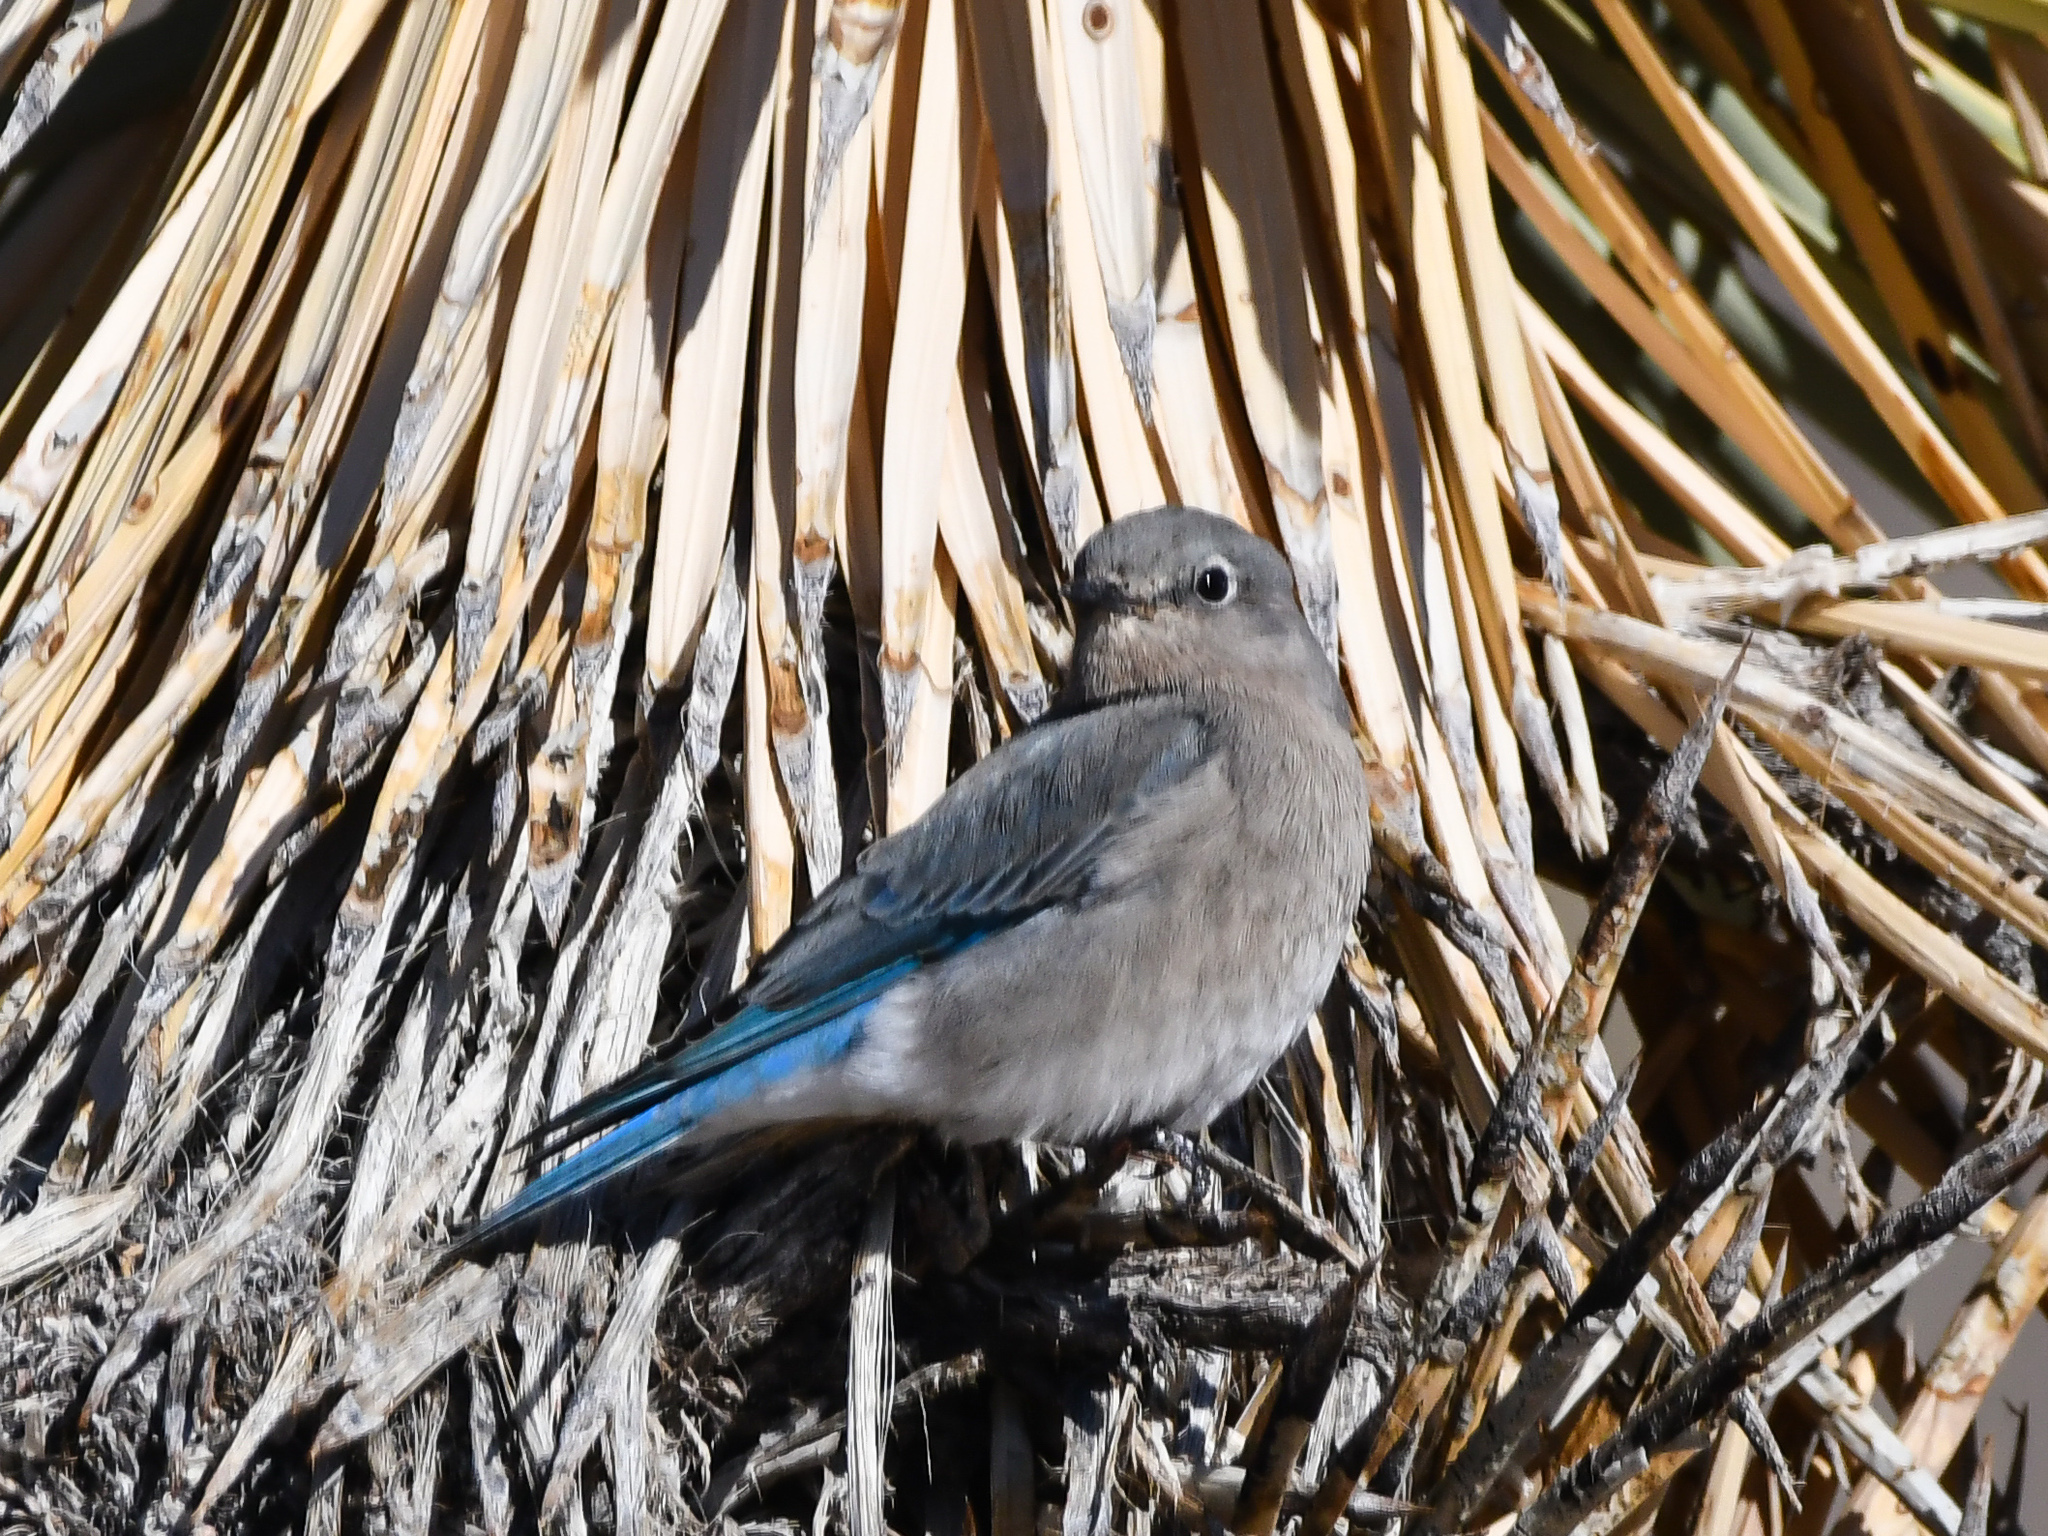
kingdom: Animalia
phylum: Chordata
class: Aves
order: Passeriformes
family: Turdidae
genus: Sialia
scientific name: Sialia currucoides
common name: Mountain bluebird
